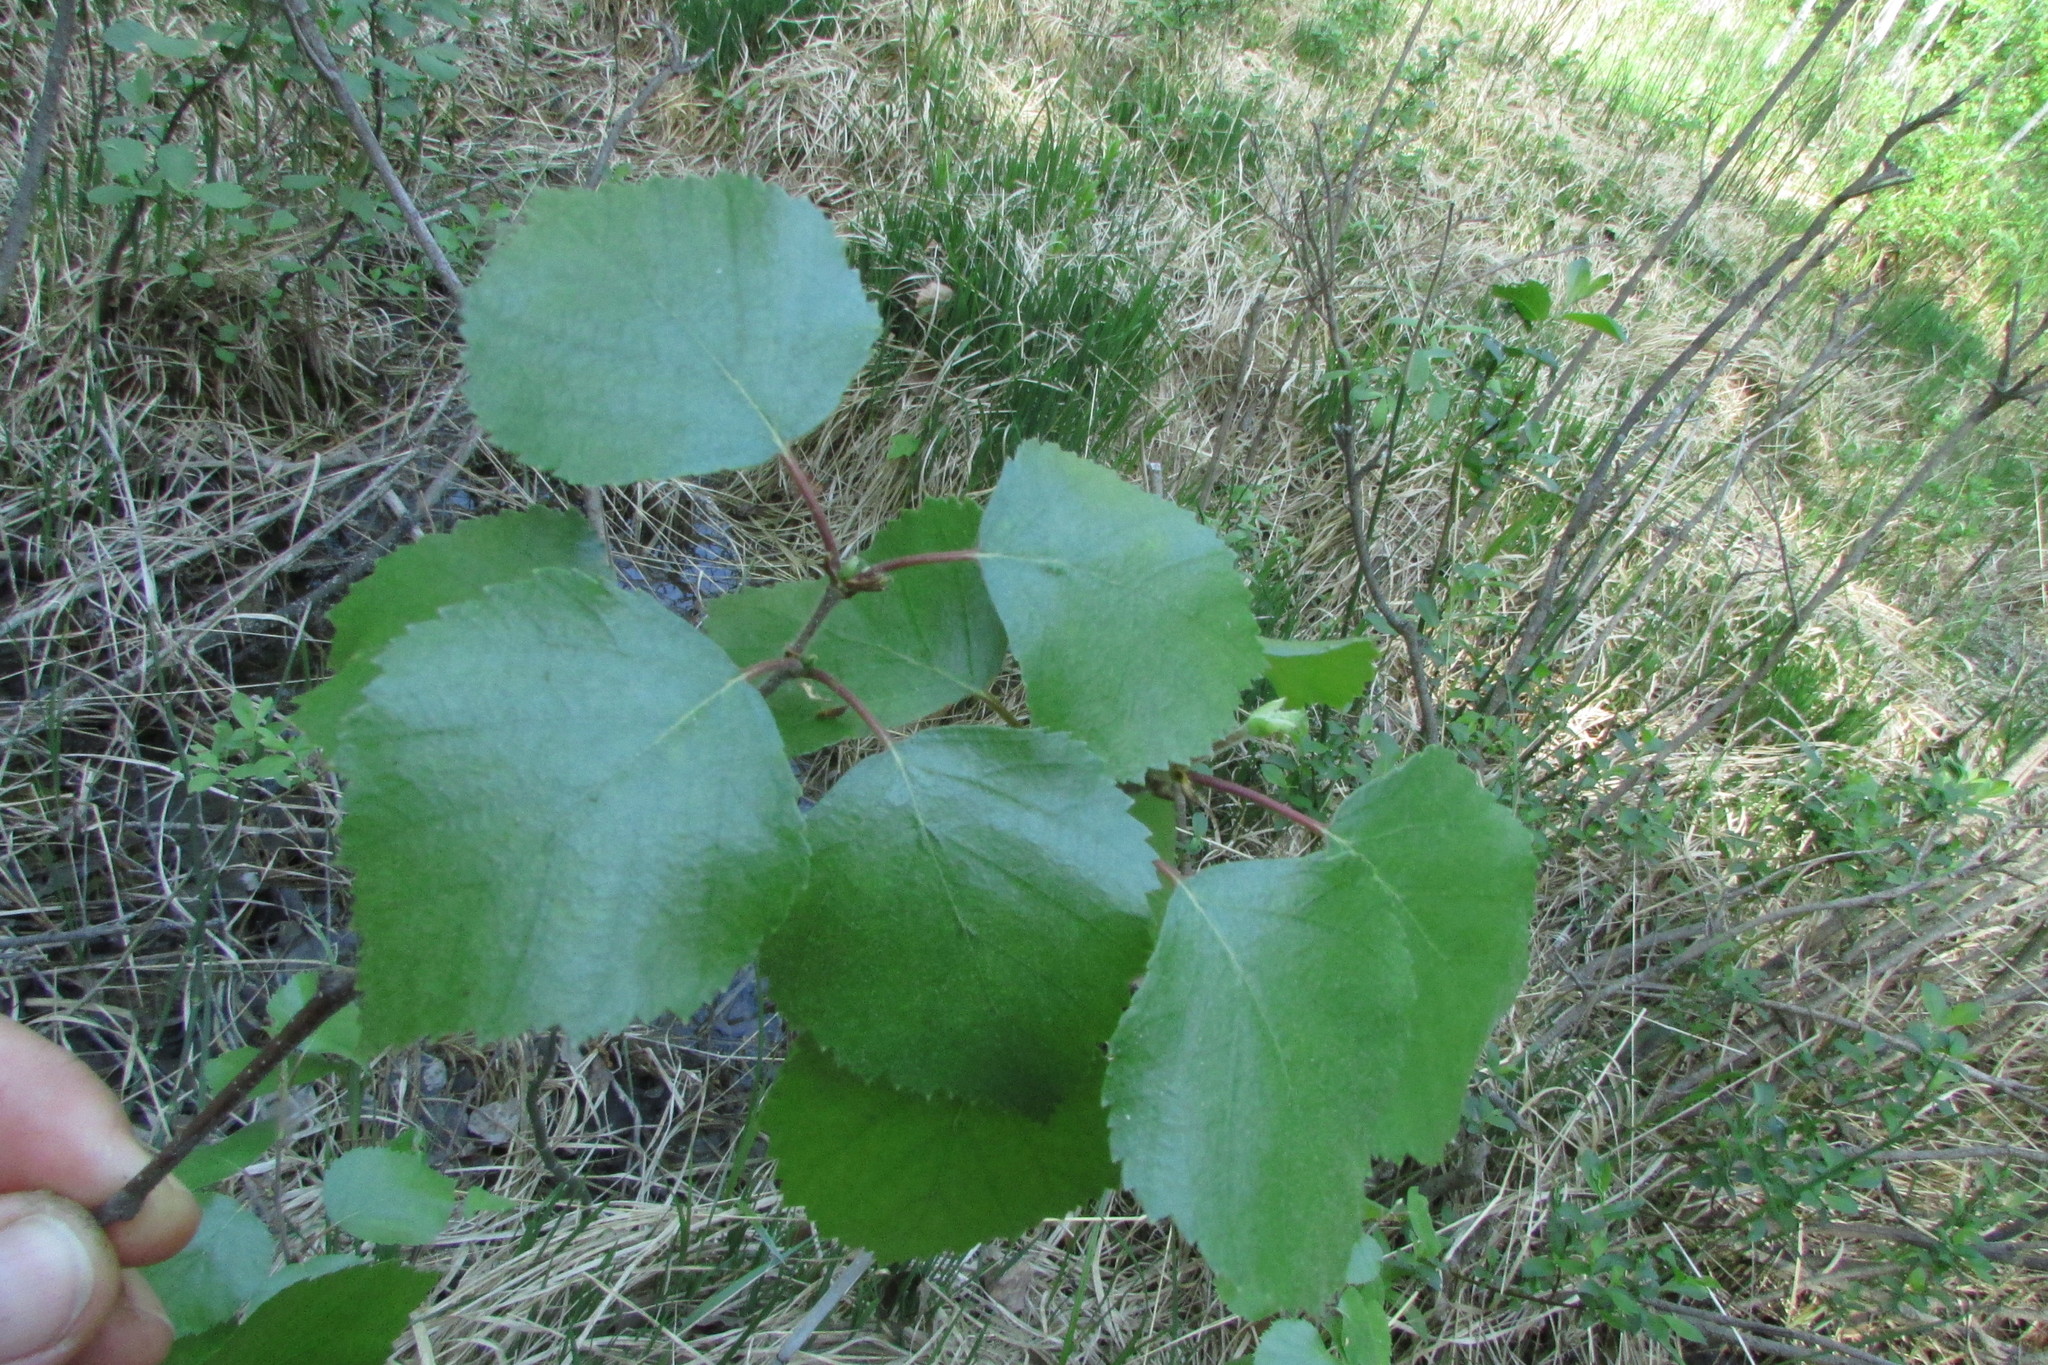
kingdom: Plantae
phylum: Tracheophyta
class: Magnoliopsida
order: Fagales
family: Betulaceae
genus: Betula
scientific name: Betula pubescens
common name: Downy birch
